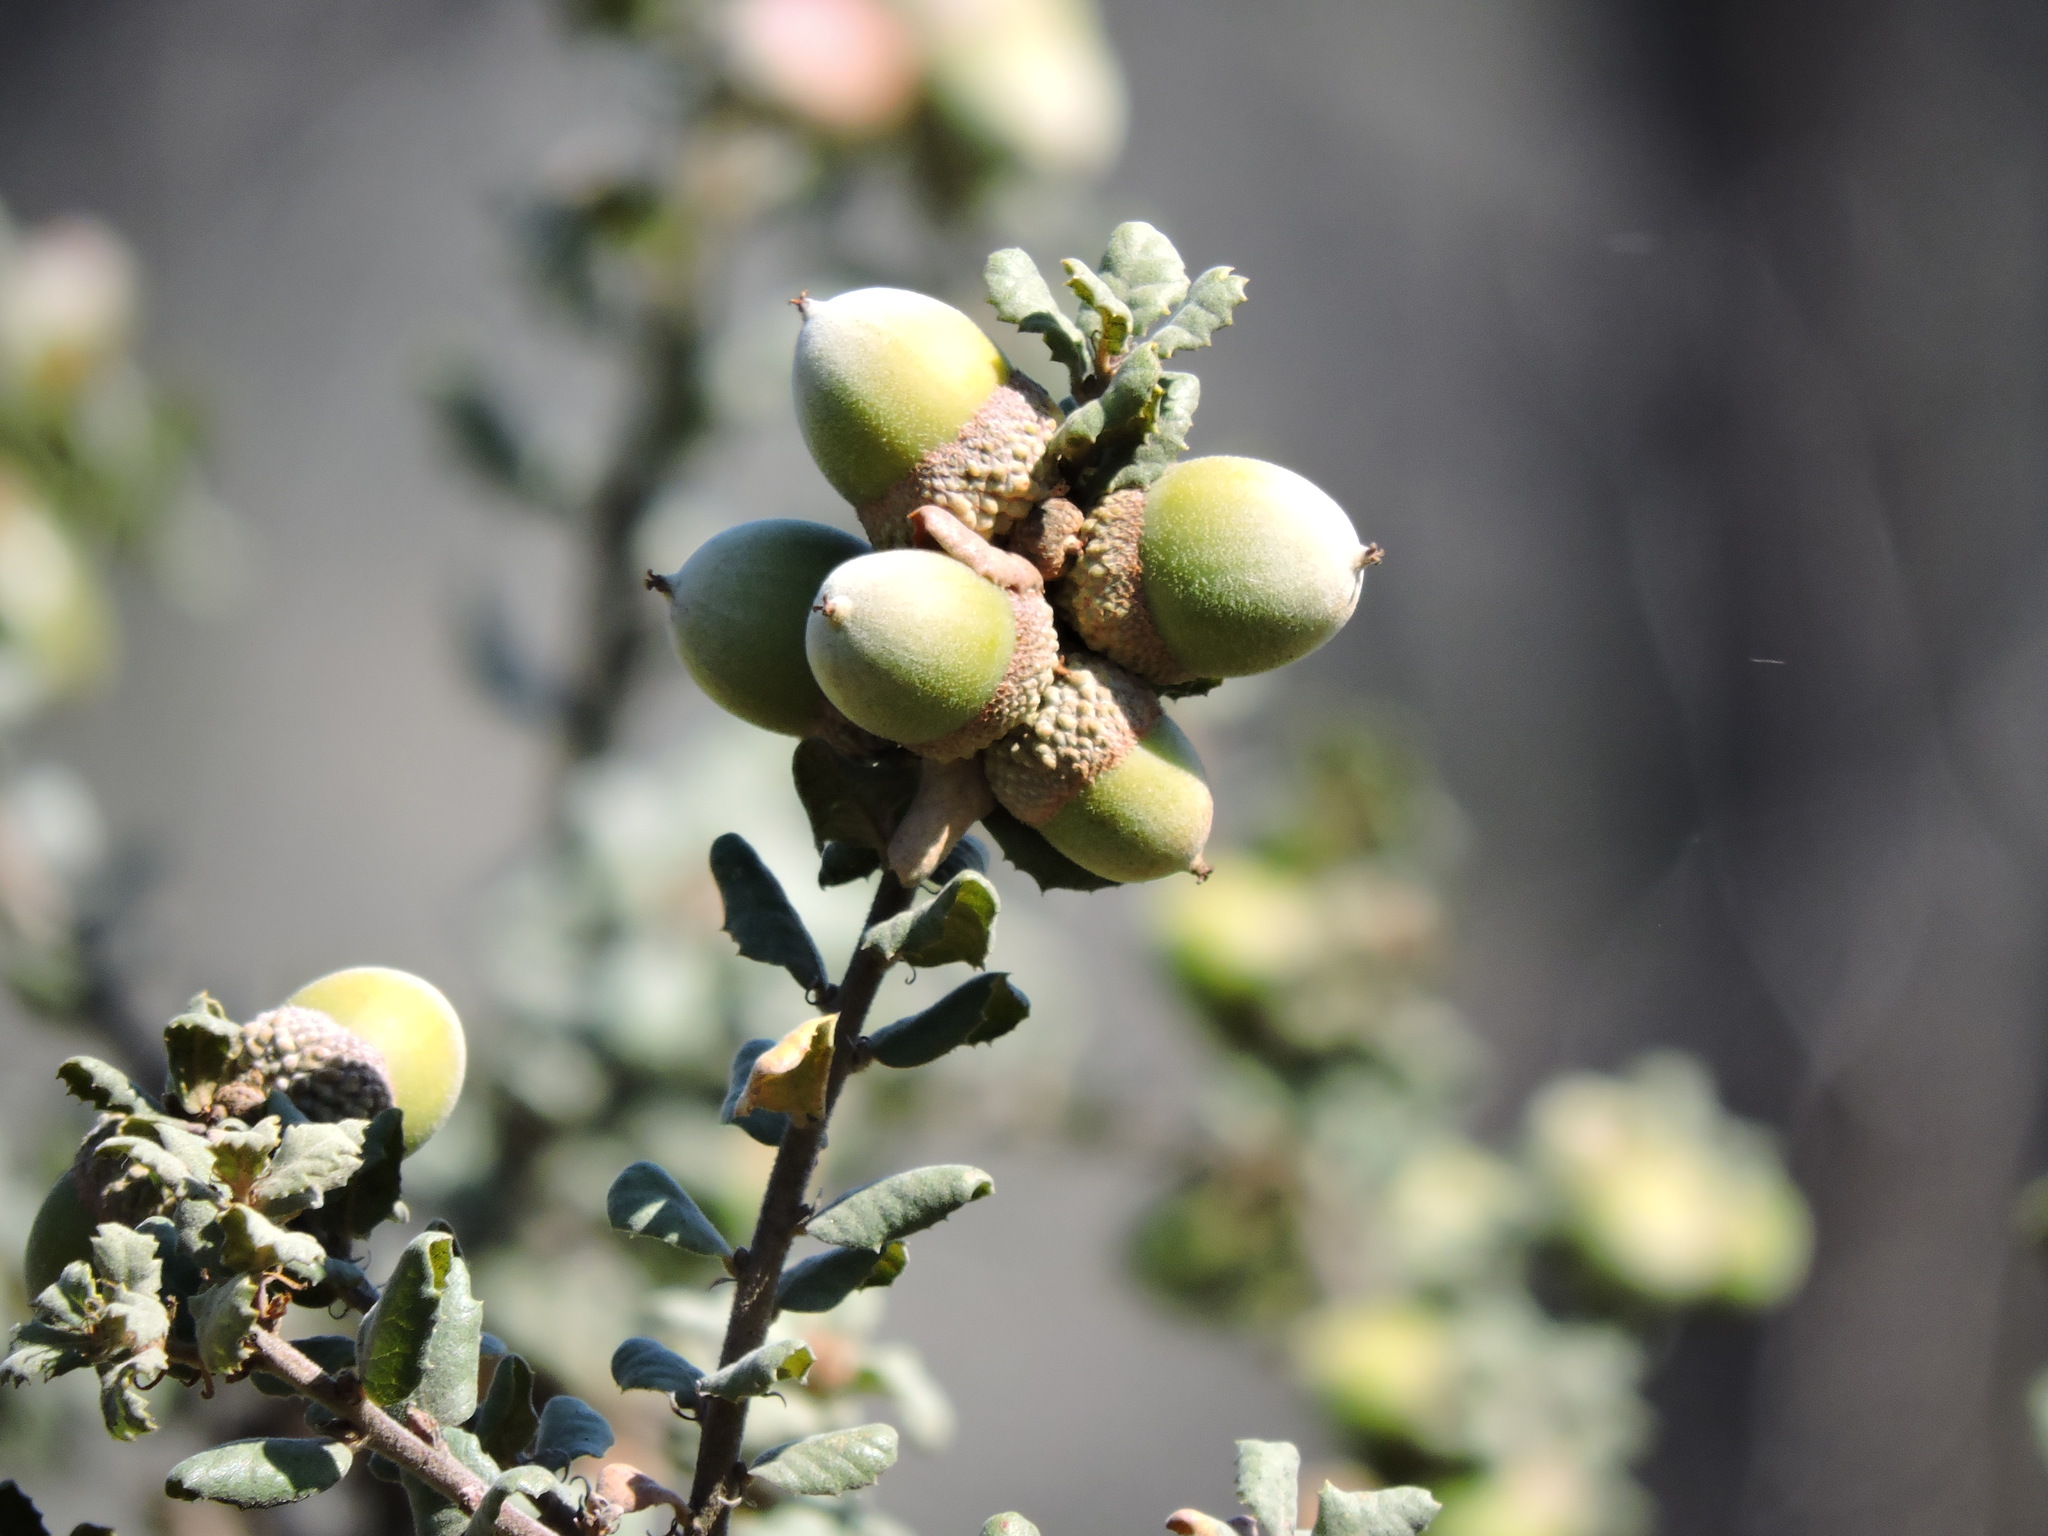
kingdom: Plantae
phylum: Tracheophyta
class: Magnoliopsida
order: Fagales
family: Fagaceae
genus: Quercus
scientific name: Quercus durata
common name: Leather oak
